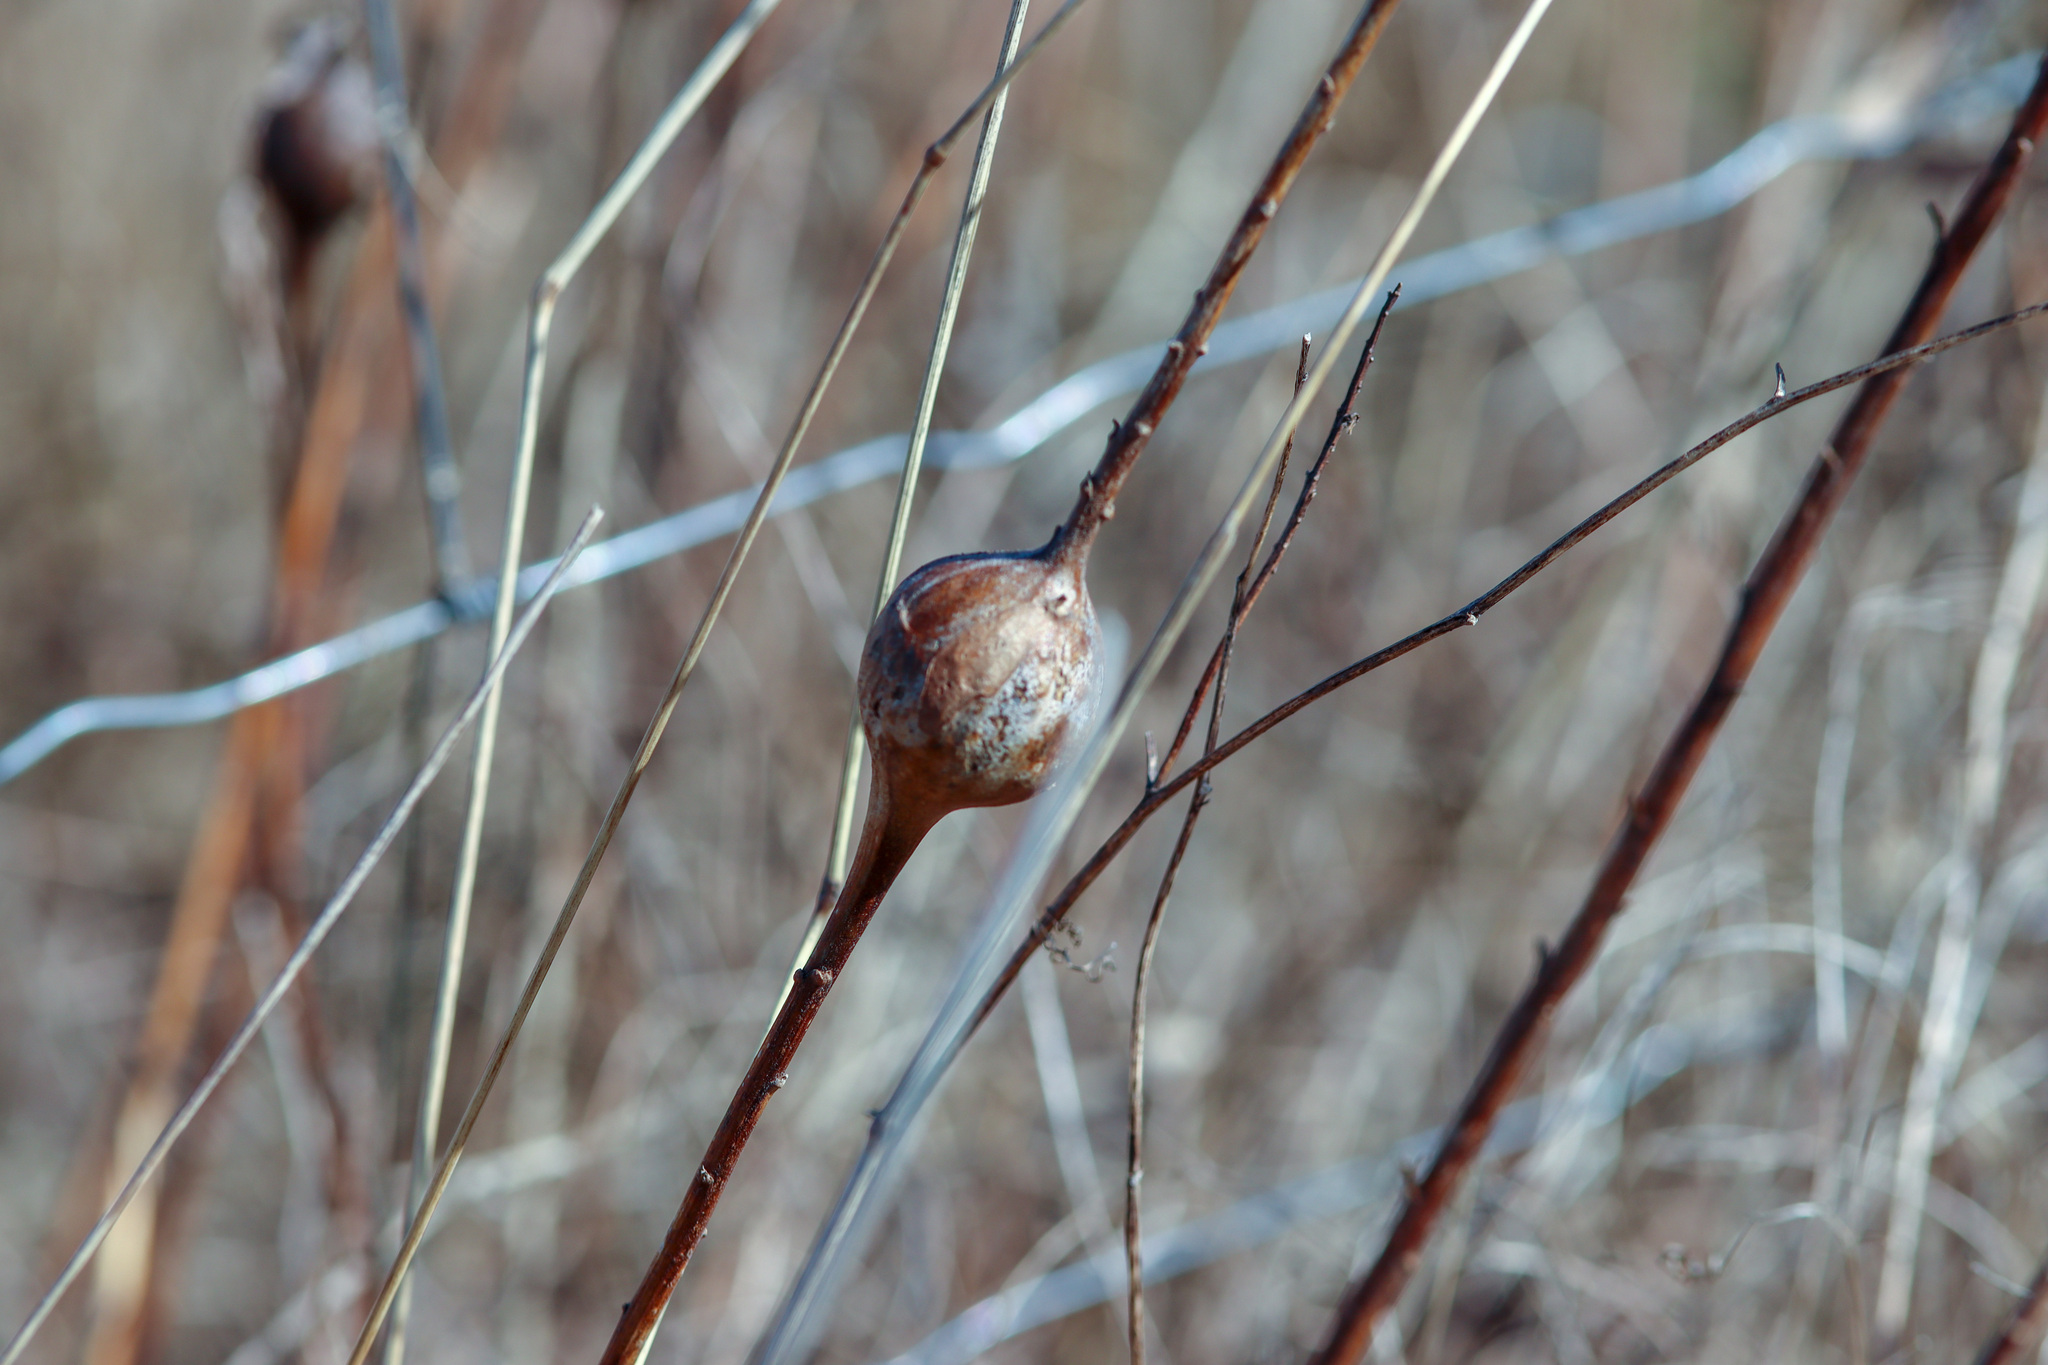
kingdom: Animalia
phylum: Arthropoda
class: Insecta
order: Diptera
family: Tephritidae
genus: Eurosta
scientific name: Eurosta solidaginis
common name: Goldenrod gall fly
